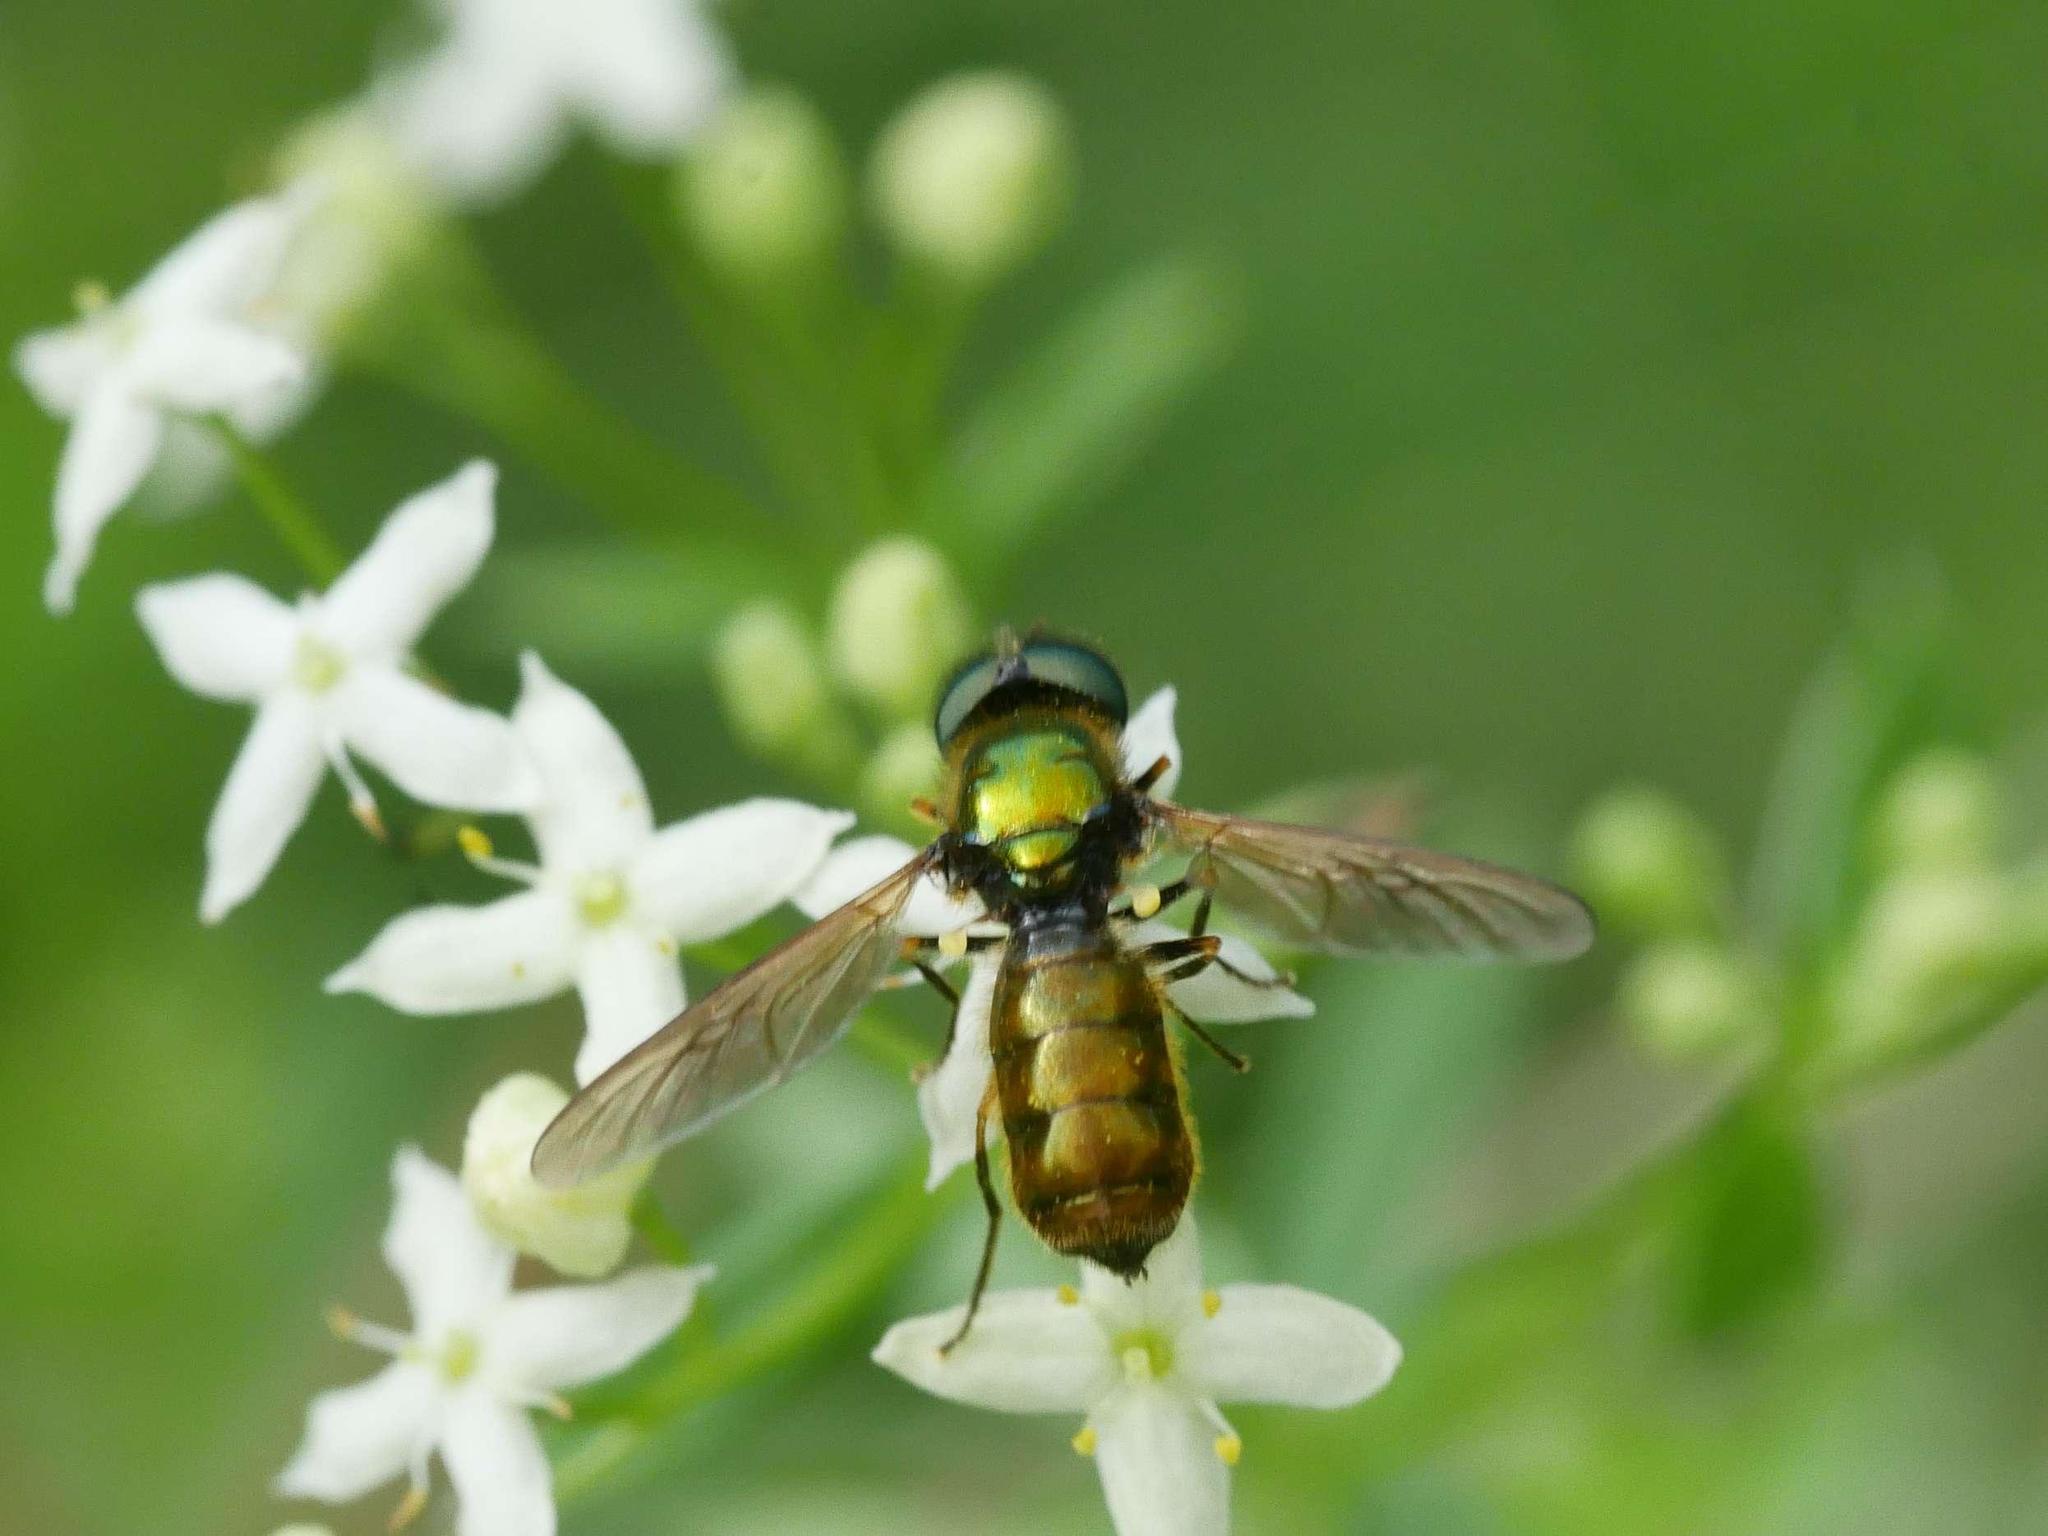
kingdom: Animalia
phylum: Arthropoda
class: Insecta
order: Diptera
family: Stratiomyidae
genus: Chloromyia
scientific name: Chloromyia formosa
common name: Soldier fly
